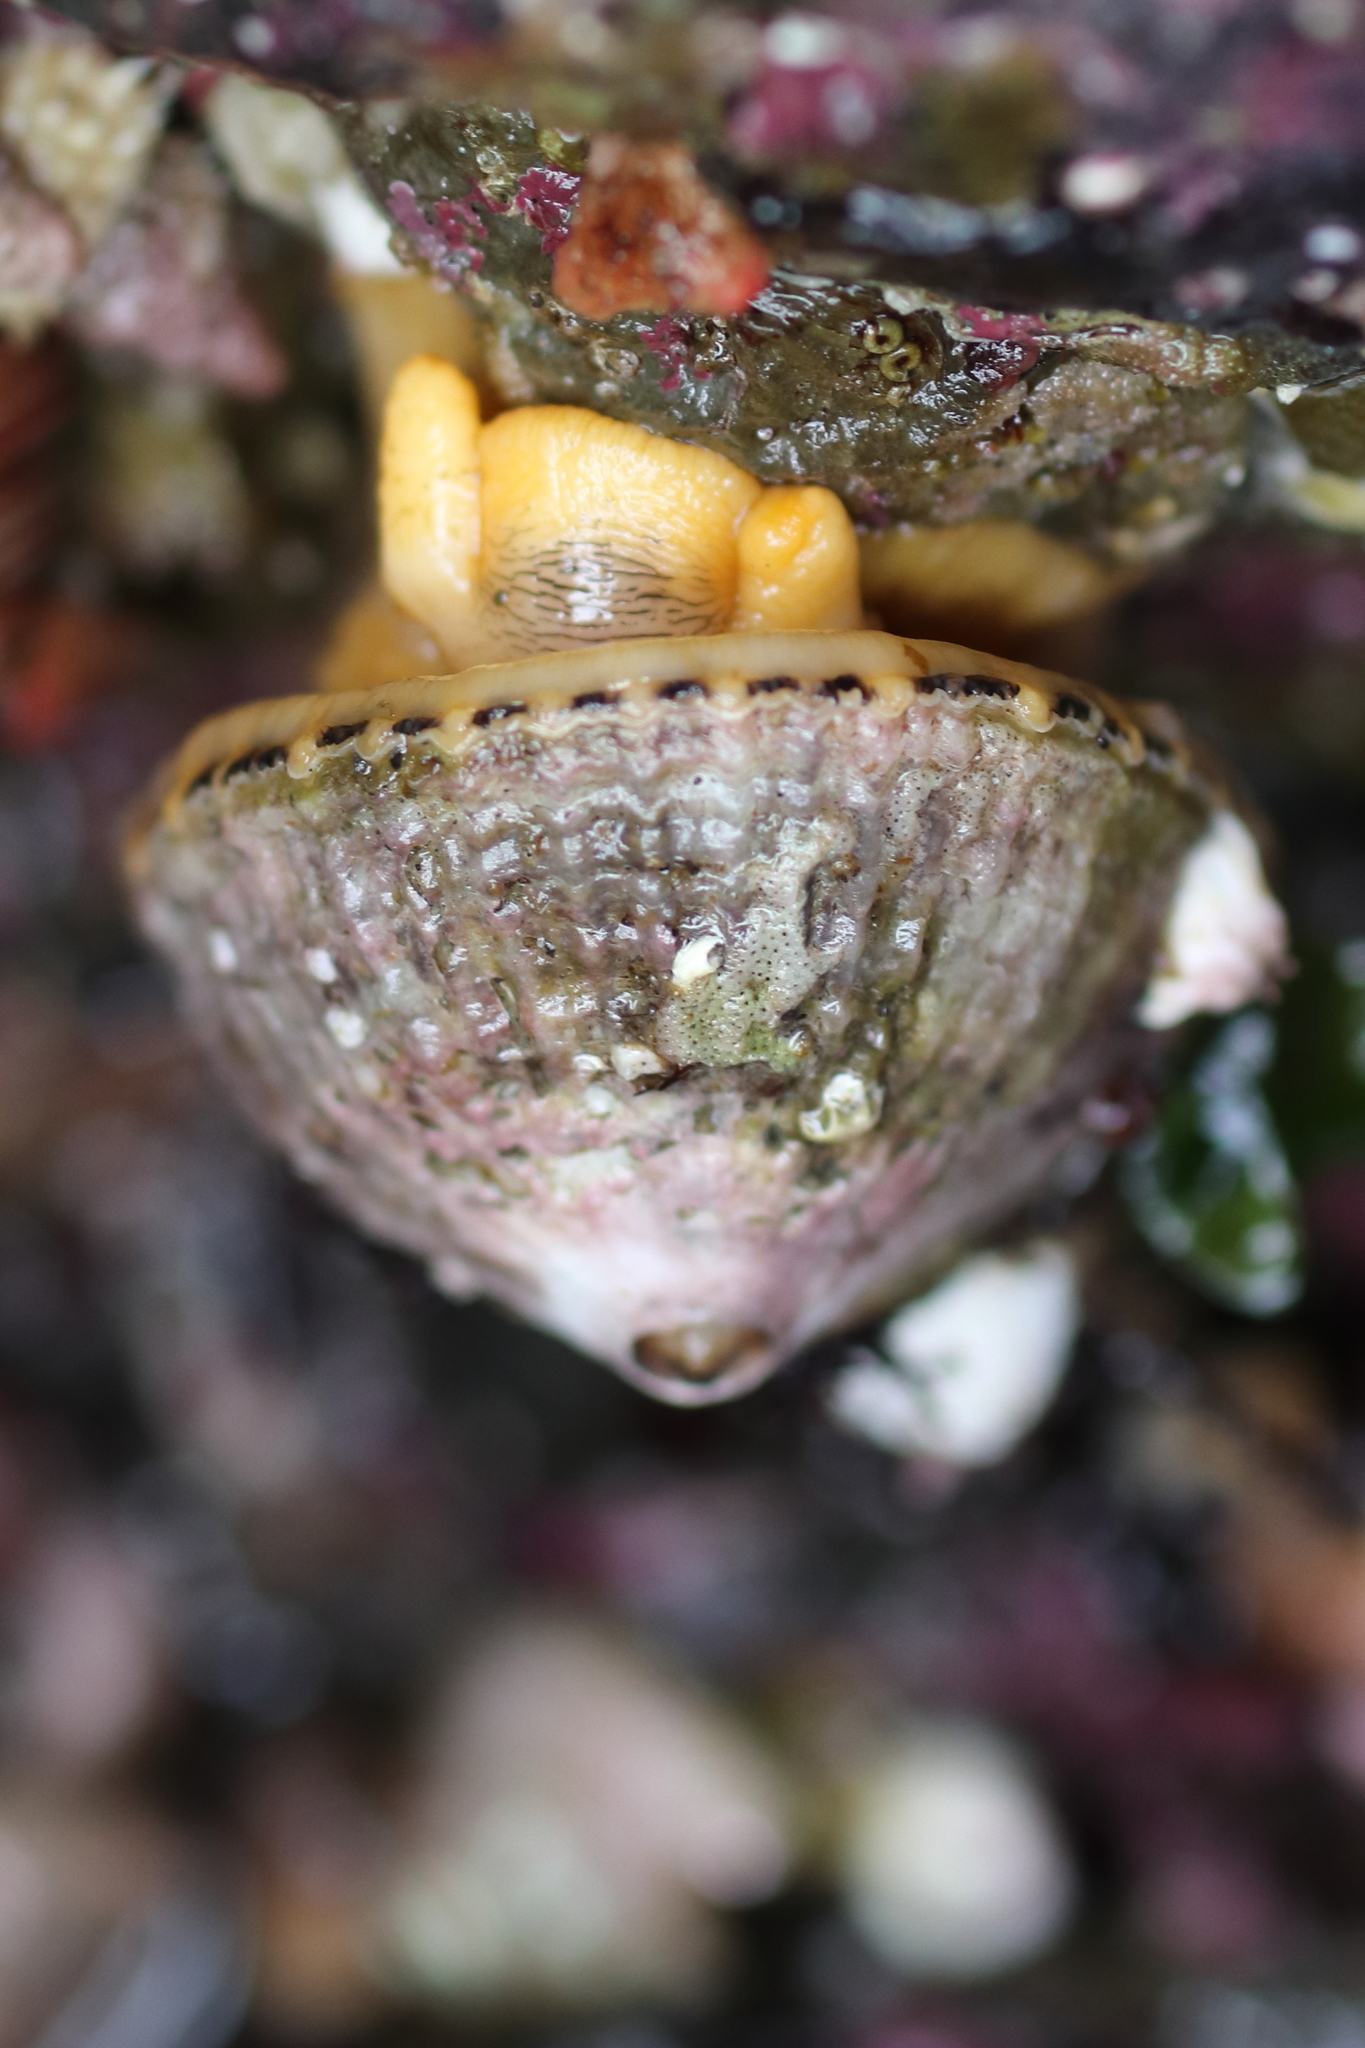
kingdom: Animalia
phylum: Mollusca
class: Gastropoda
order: Lepetellida
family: Fissurellidae
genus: Diodora
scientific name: Diodora aspera
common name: Rough keyhole limpet
